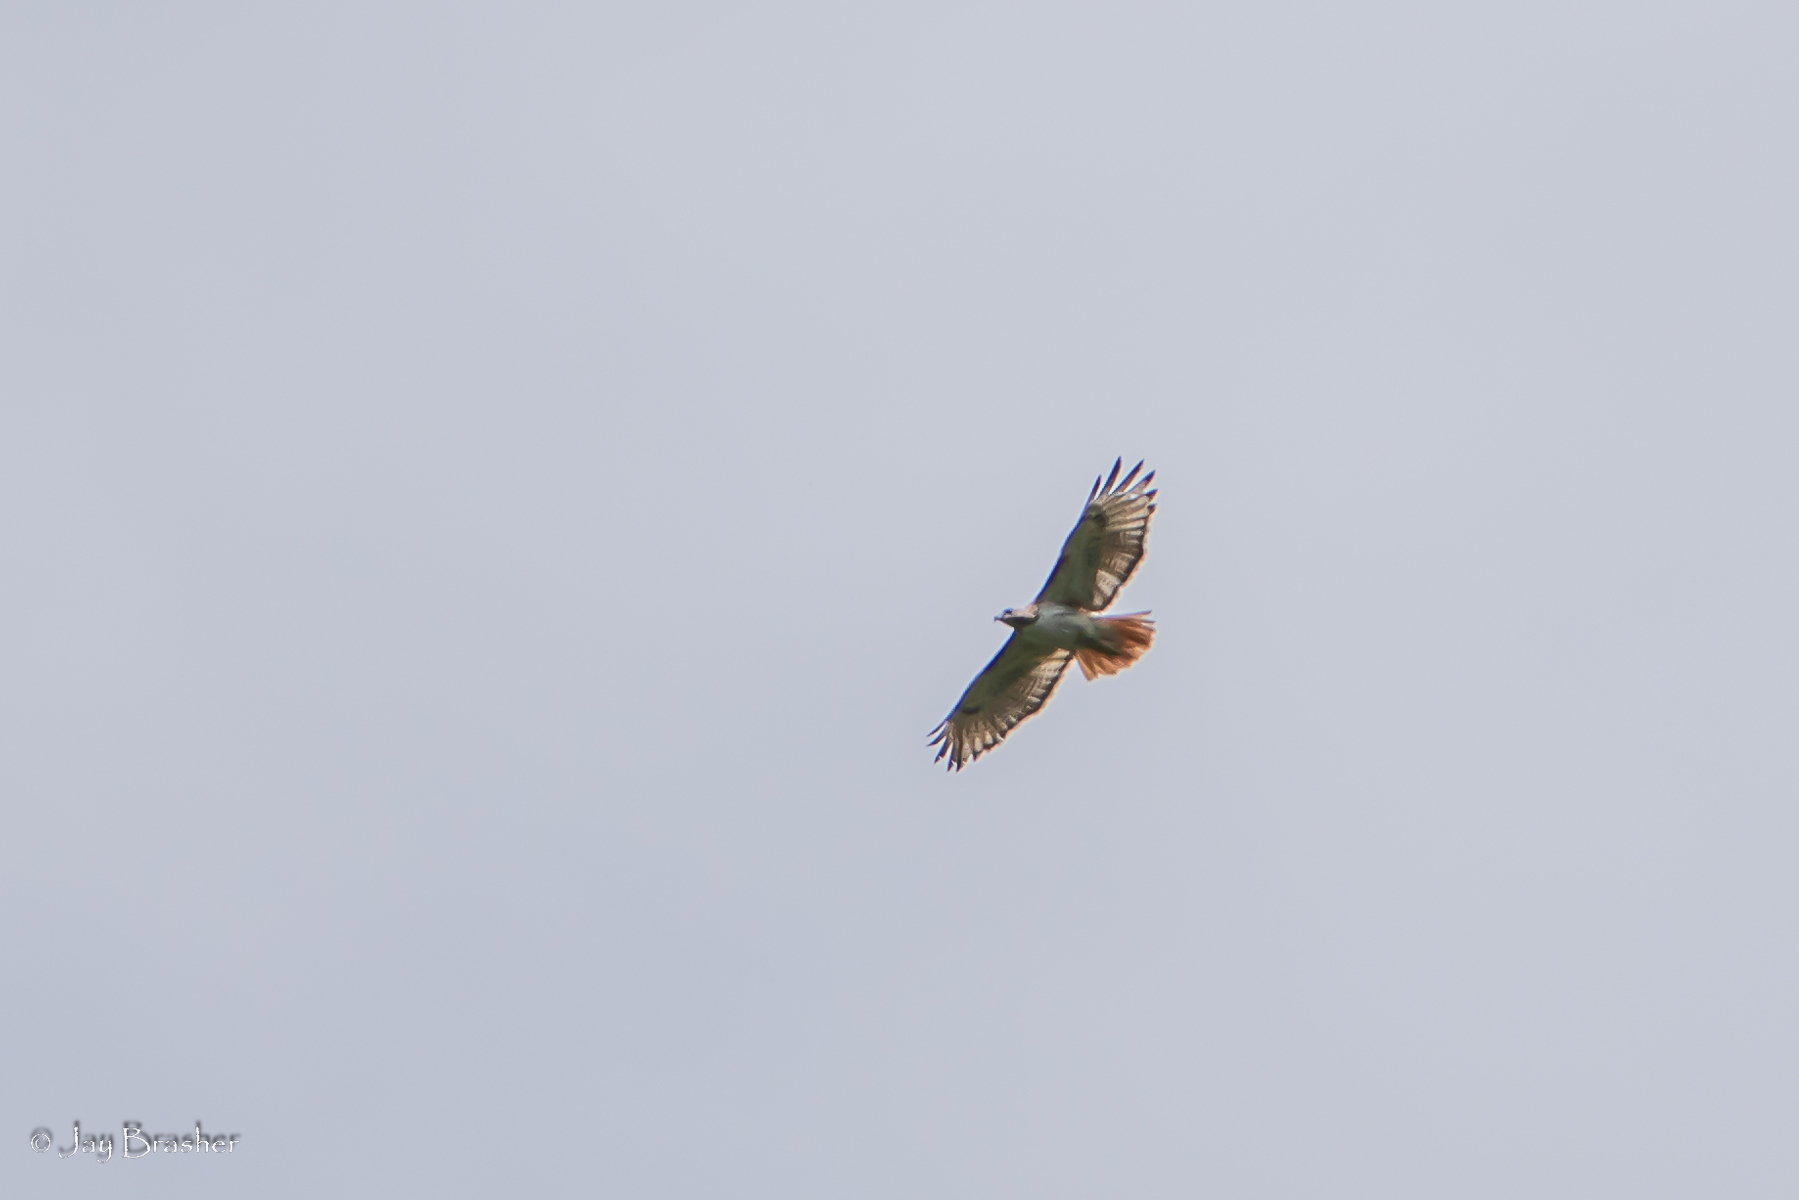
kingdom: Animalia
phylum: Chordata
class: Aves
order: Accipitriformes
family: Accipitridae
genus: Buteo
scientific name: Buteo jamaicensis
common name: Red-tailed hawk
